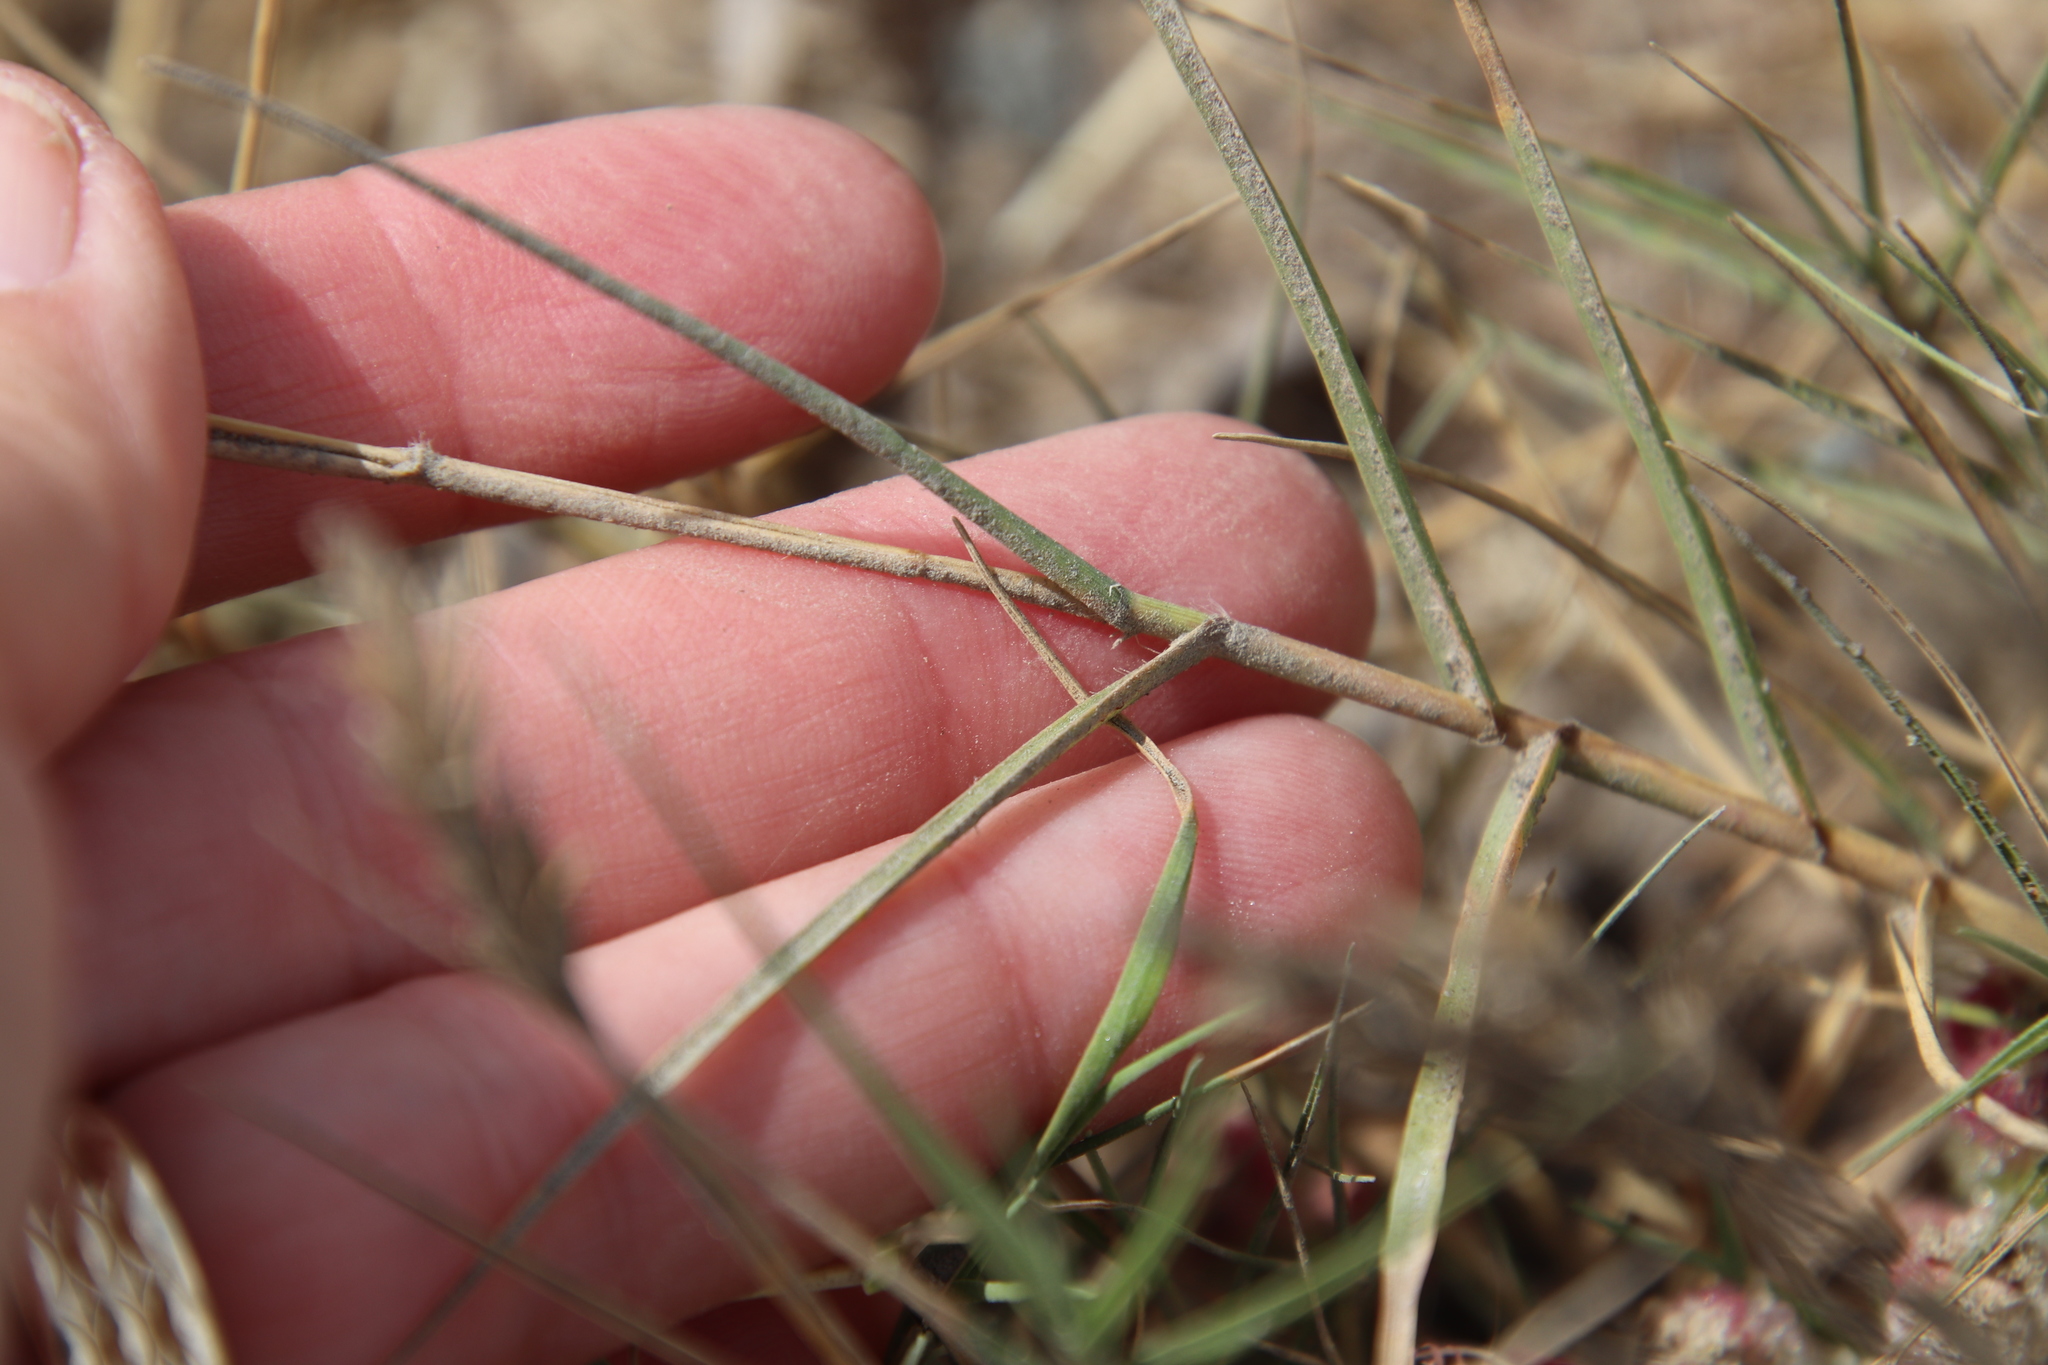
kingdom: Plantae
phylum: Tracheophyta
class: Liliopsida
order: Poales
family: Poaceae
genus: Distichlis
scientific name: Distichlis spicata
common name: Saltgrass
